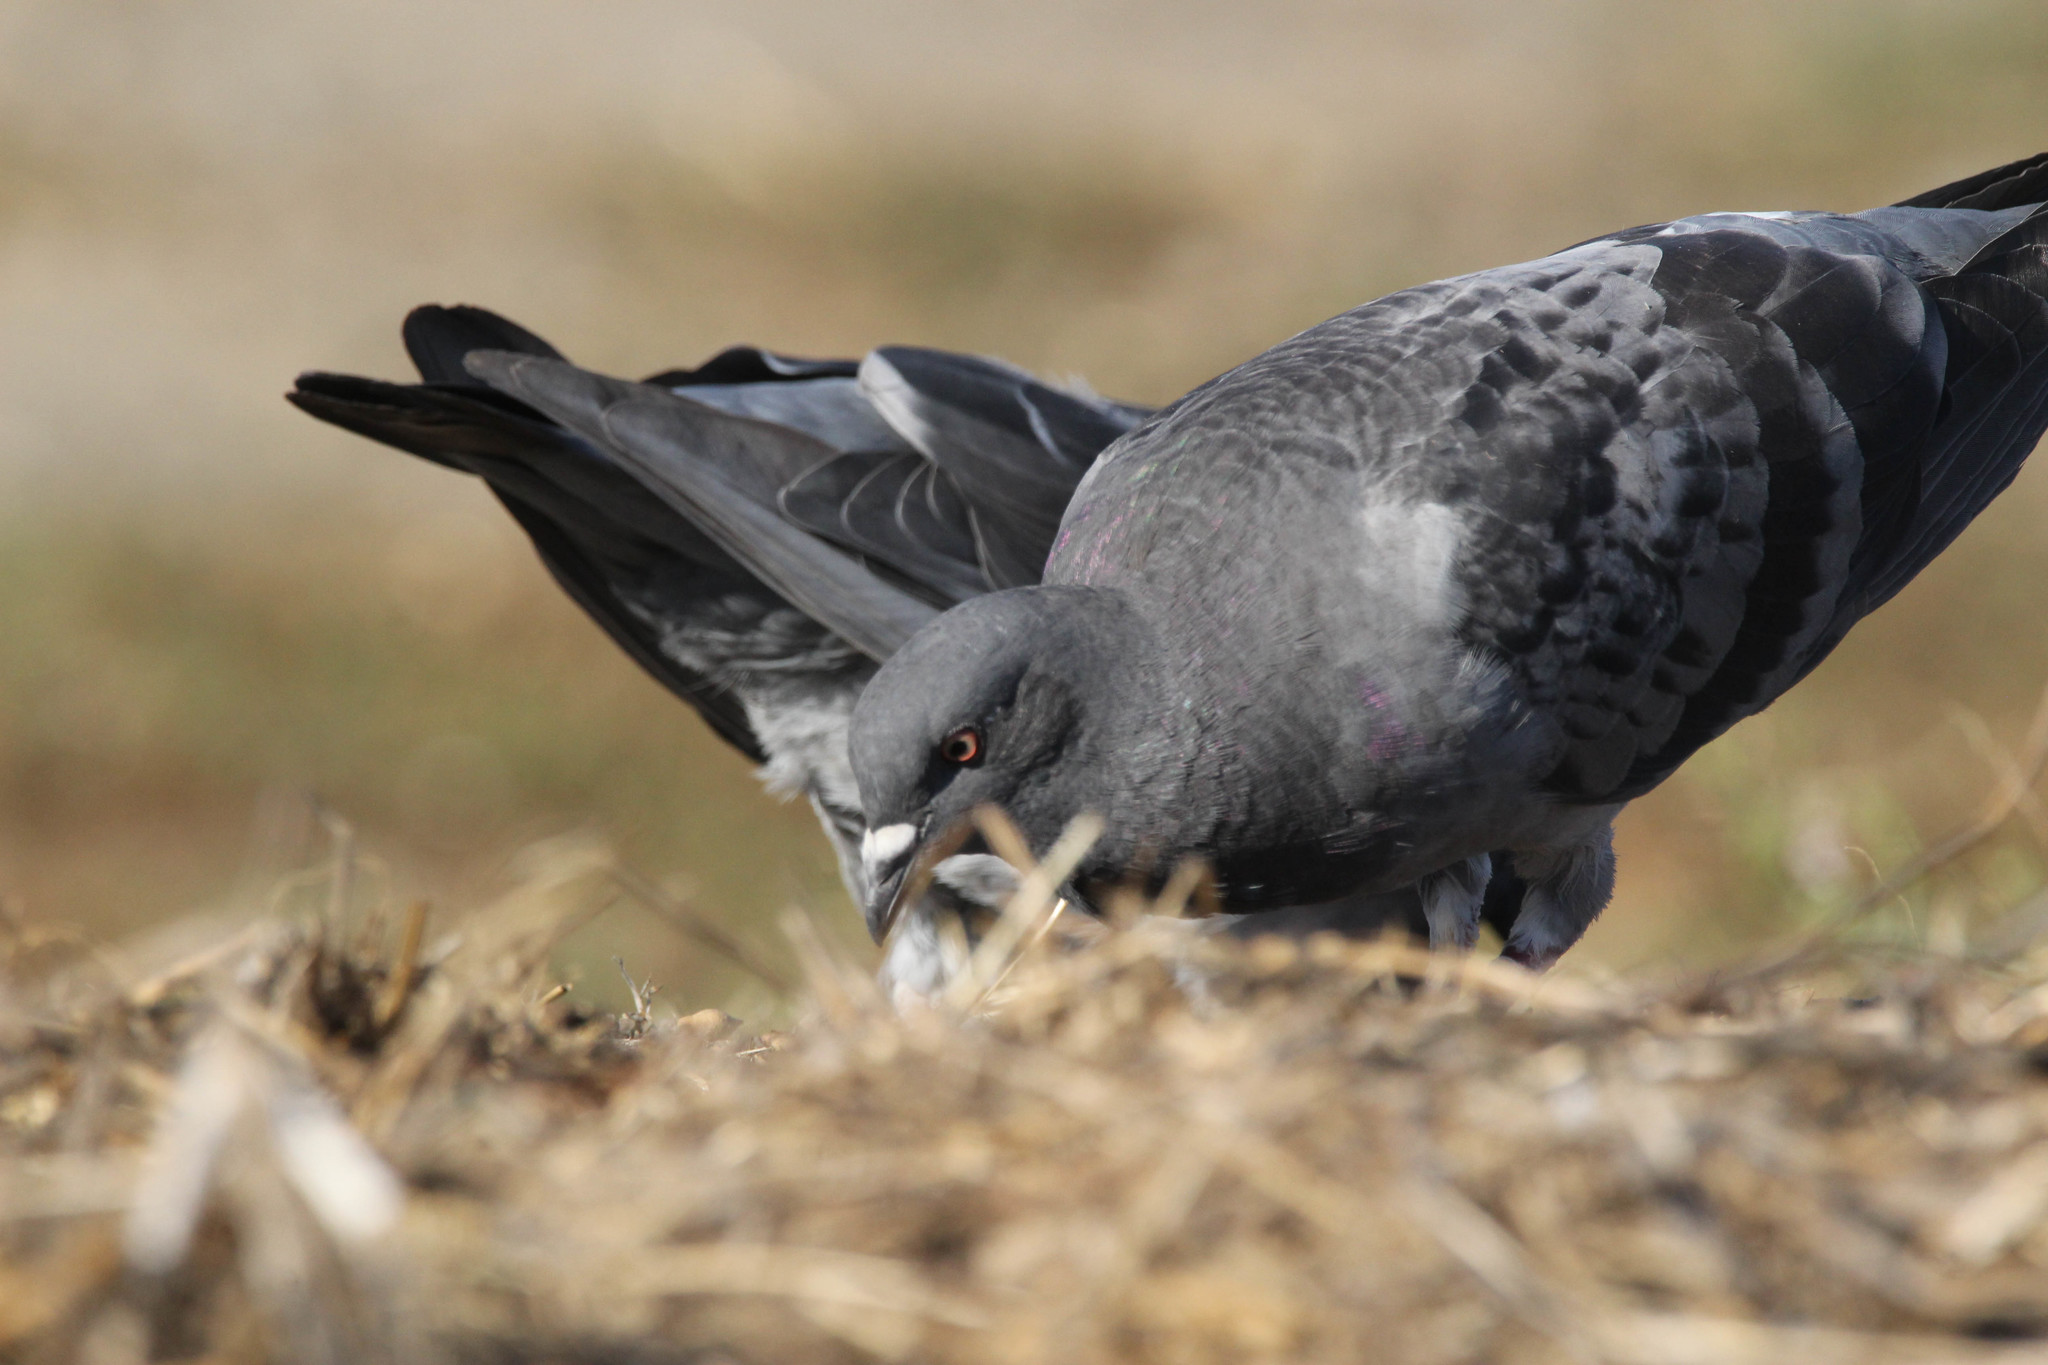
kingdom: Animalia
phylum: Chordata
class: Aves
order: Columbiformes
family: Columbidae
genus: Columba
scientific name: Columba livia
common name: Rock pigeon
